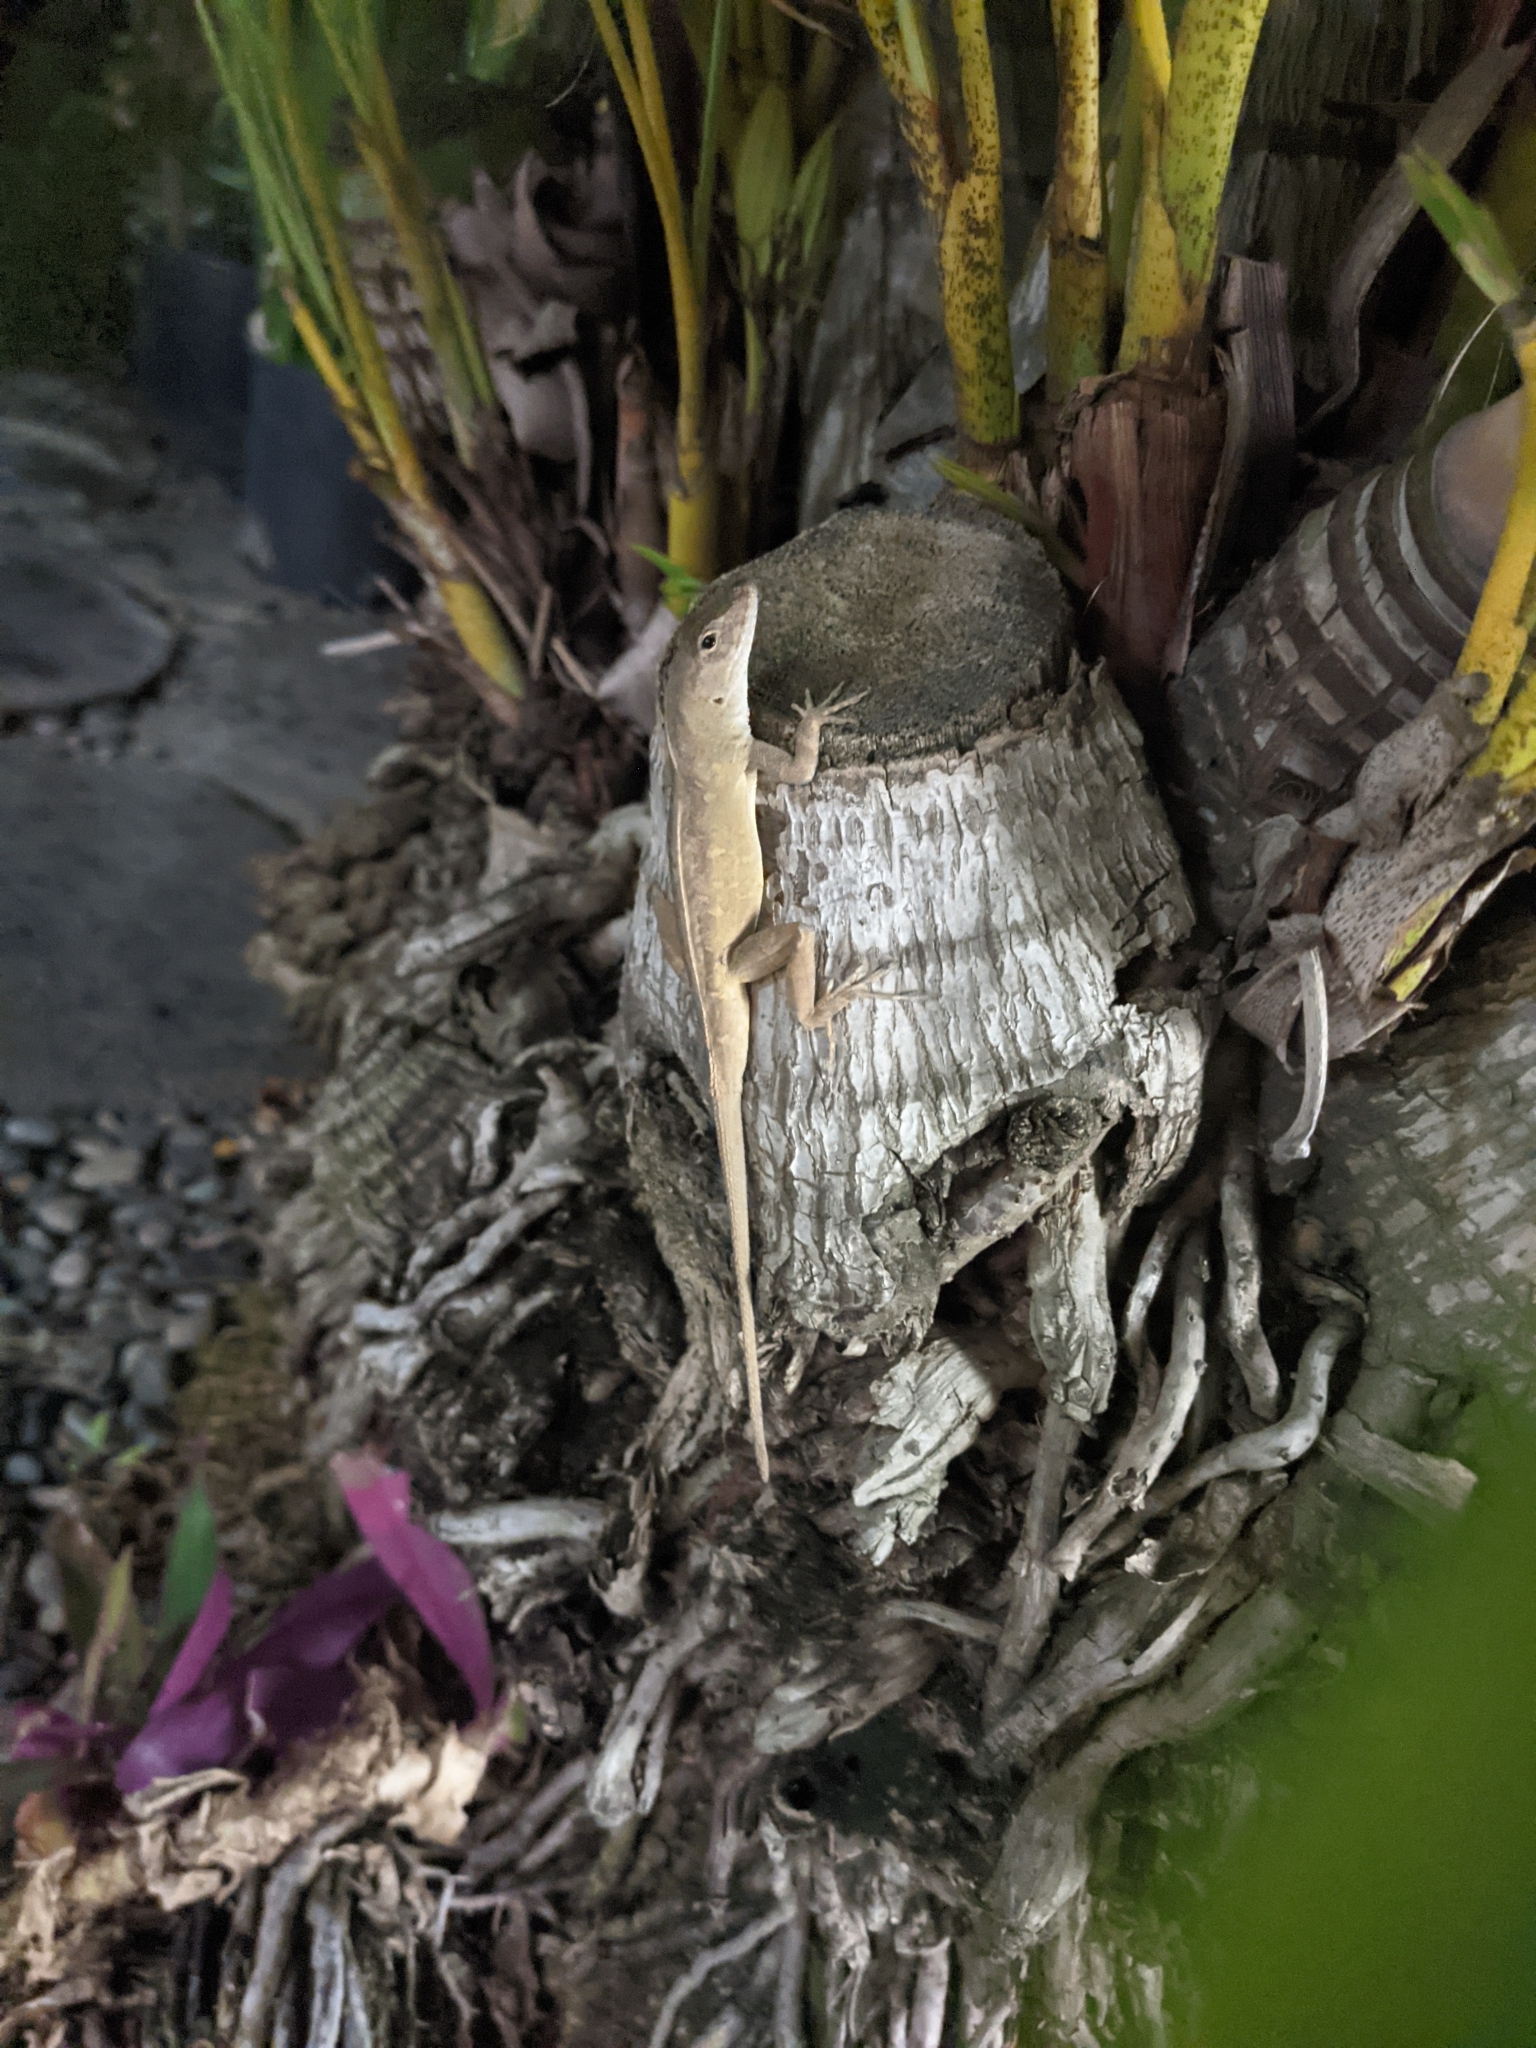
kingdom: Animalia
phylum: Chordata
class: Squamata
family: Dactyloidae
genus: Anolis
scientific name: Anolis sagrei
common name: Brown anole
